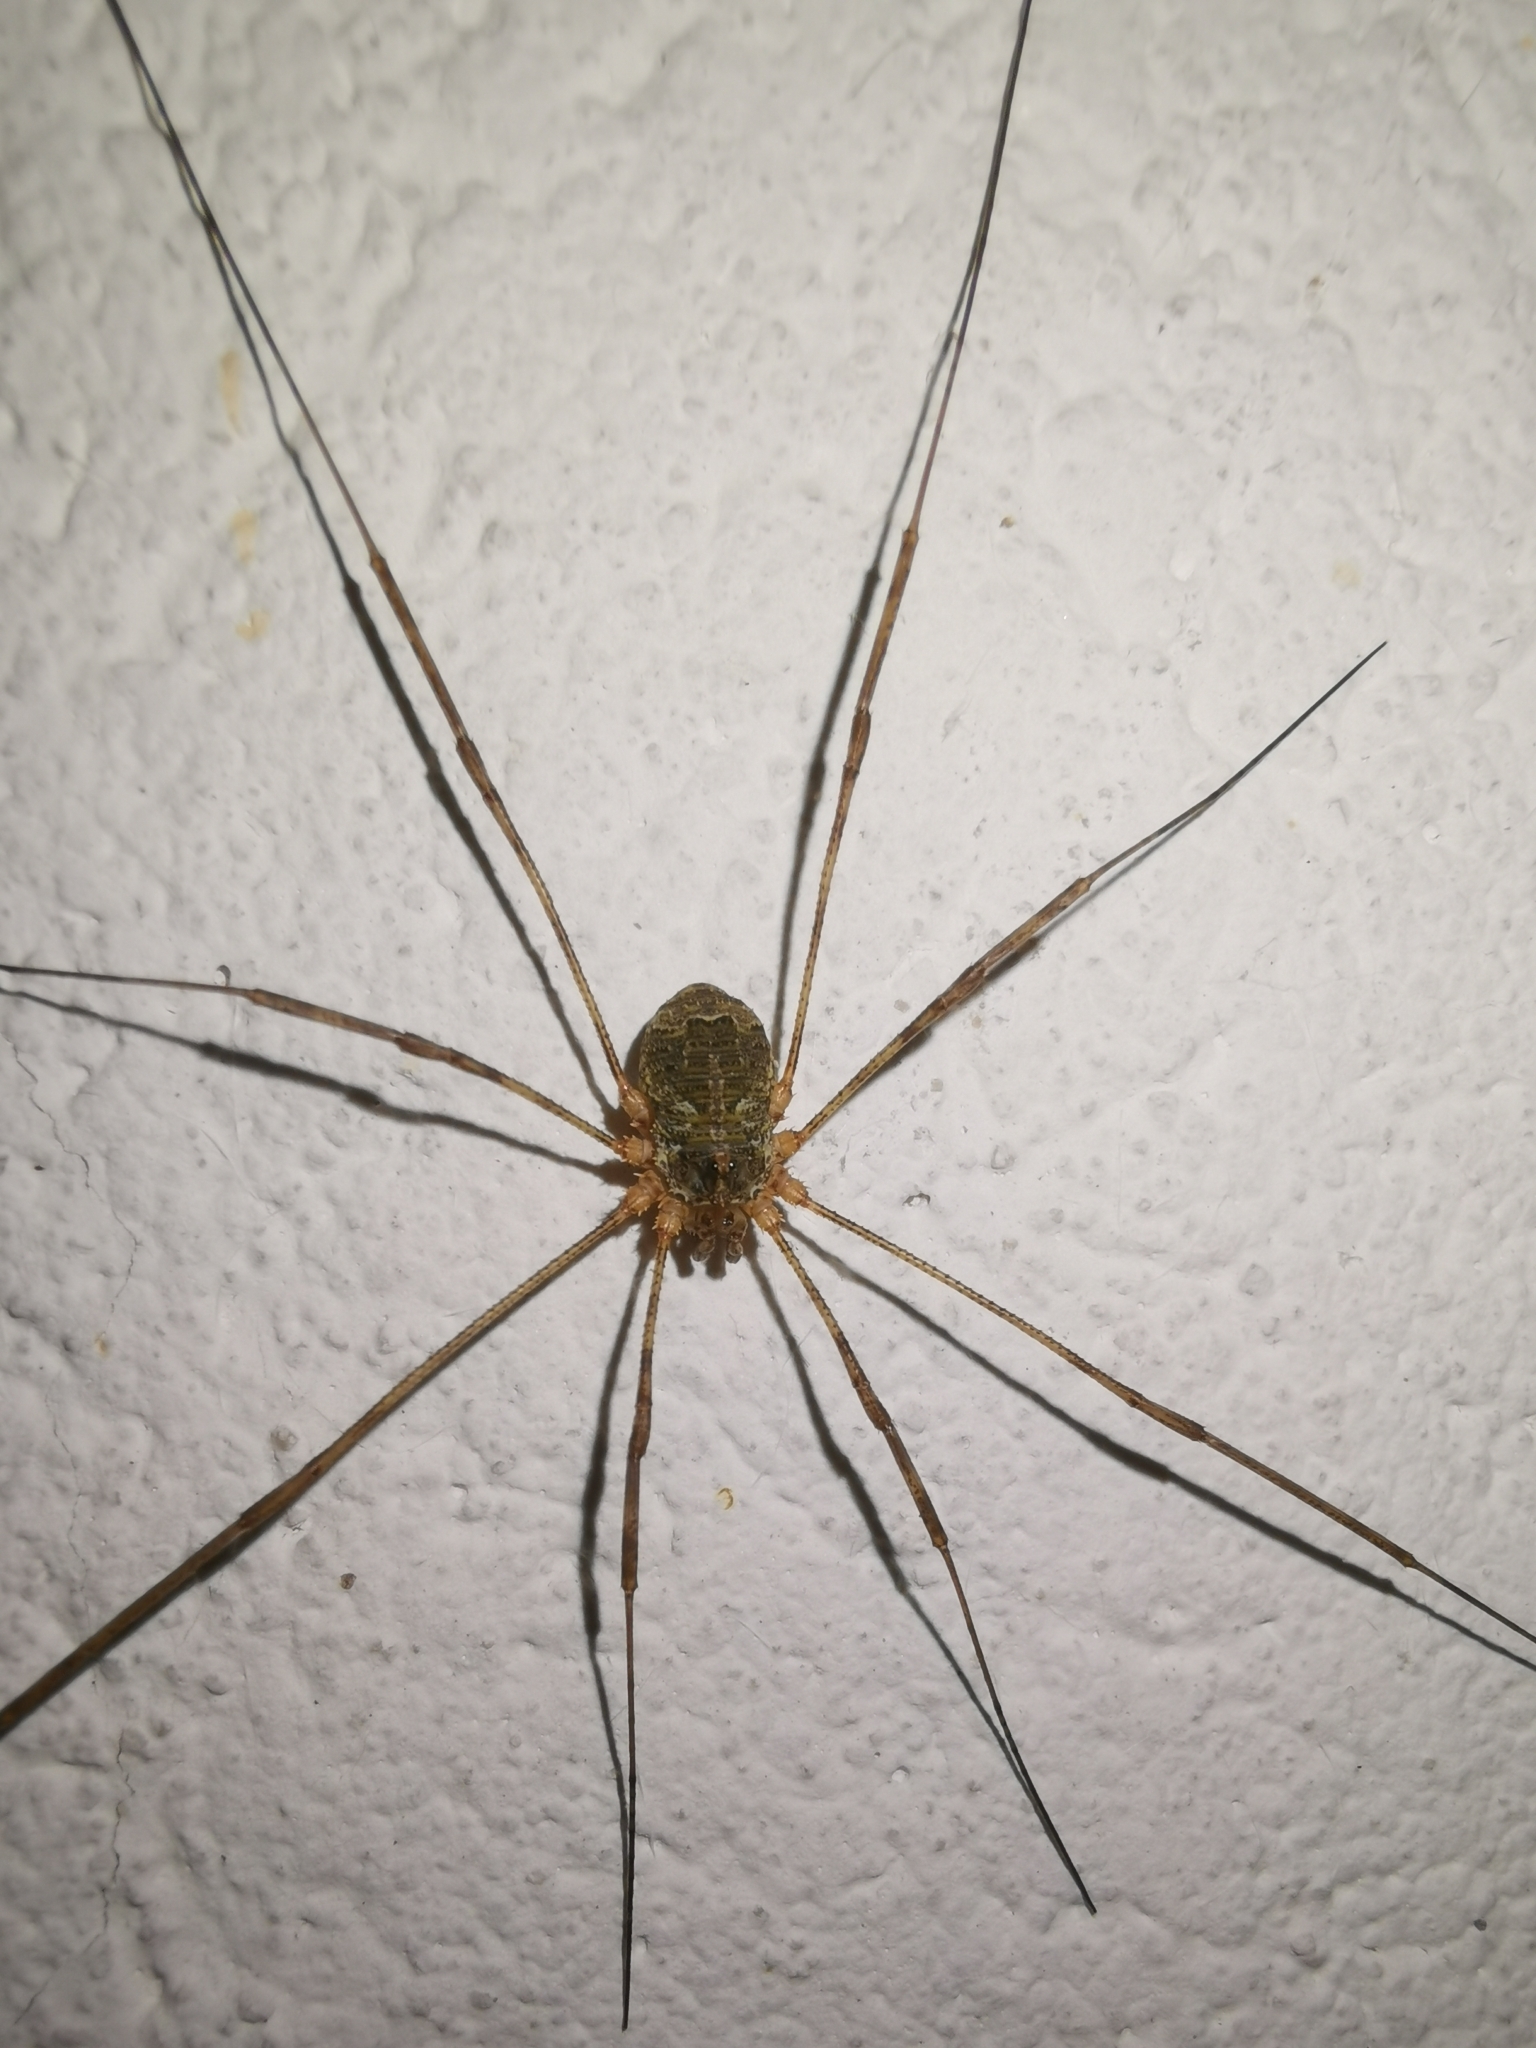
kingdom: Animalia
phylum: Arthropoda
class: Arachnida
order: Opiliones
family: Phalangiidae
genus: Lacinius
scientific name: Lacinius dentiger
